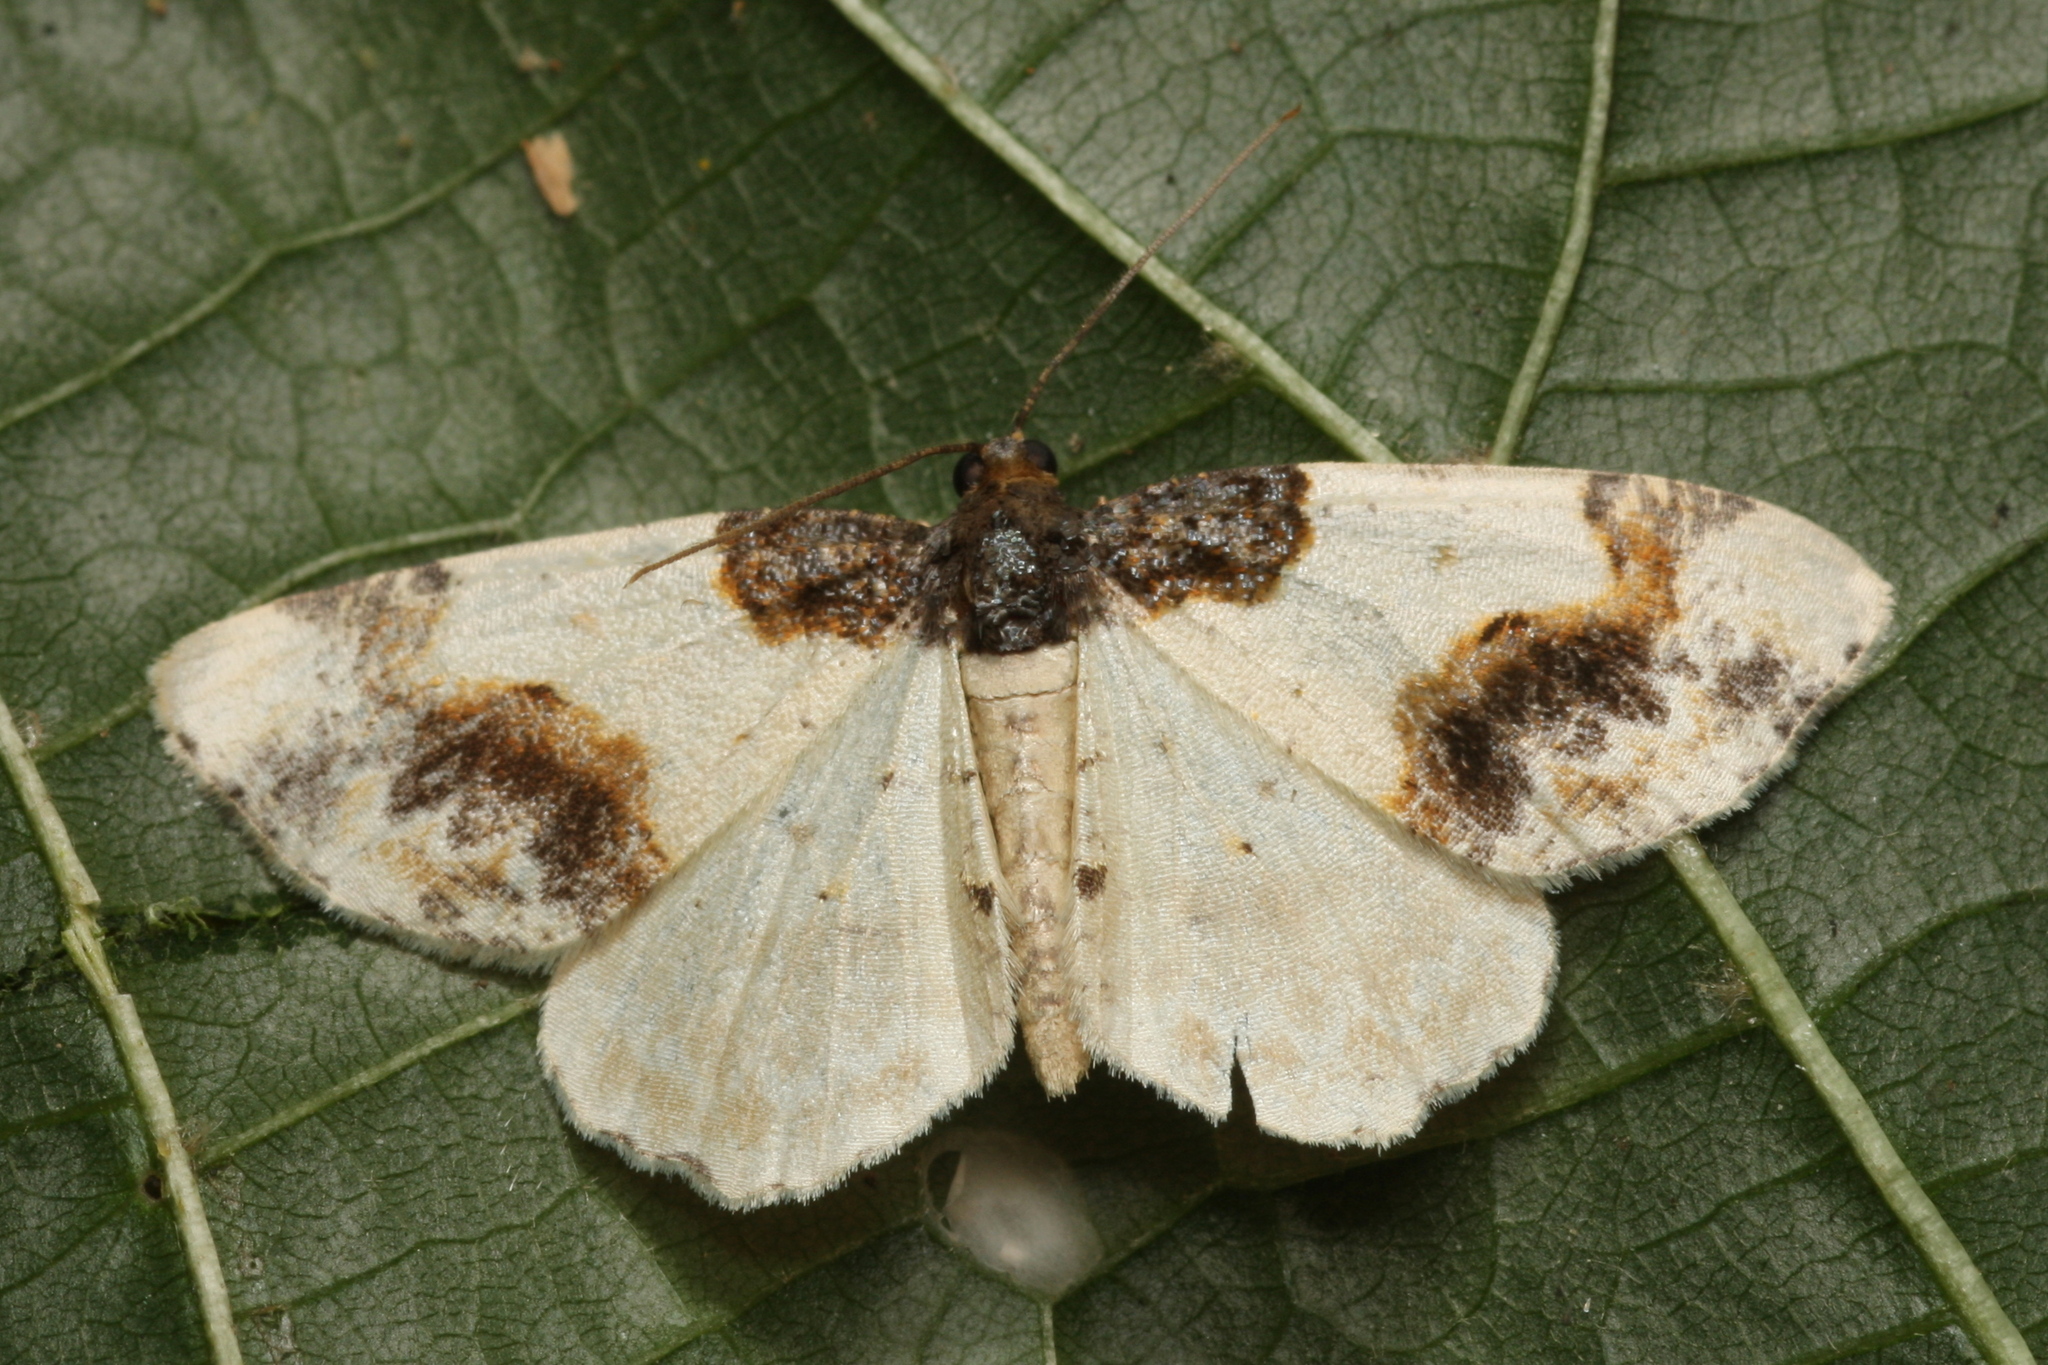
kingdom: Animalia
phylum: Arthropoda
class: Insecta
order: Lepidoptera
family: Geometridae
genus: Ligdia
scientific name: Ligdia adustata
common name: Scorched carpet
